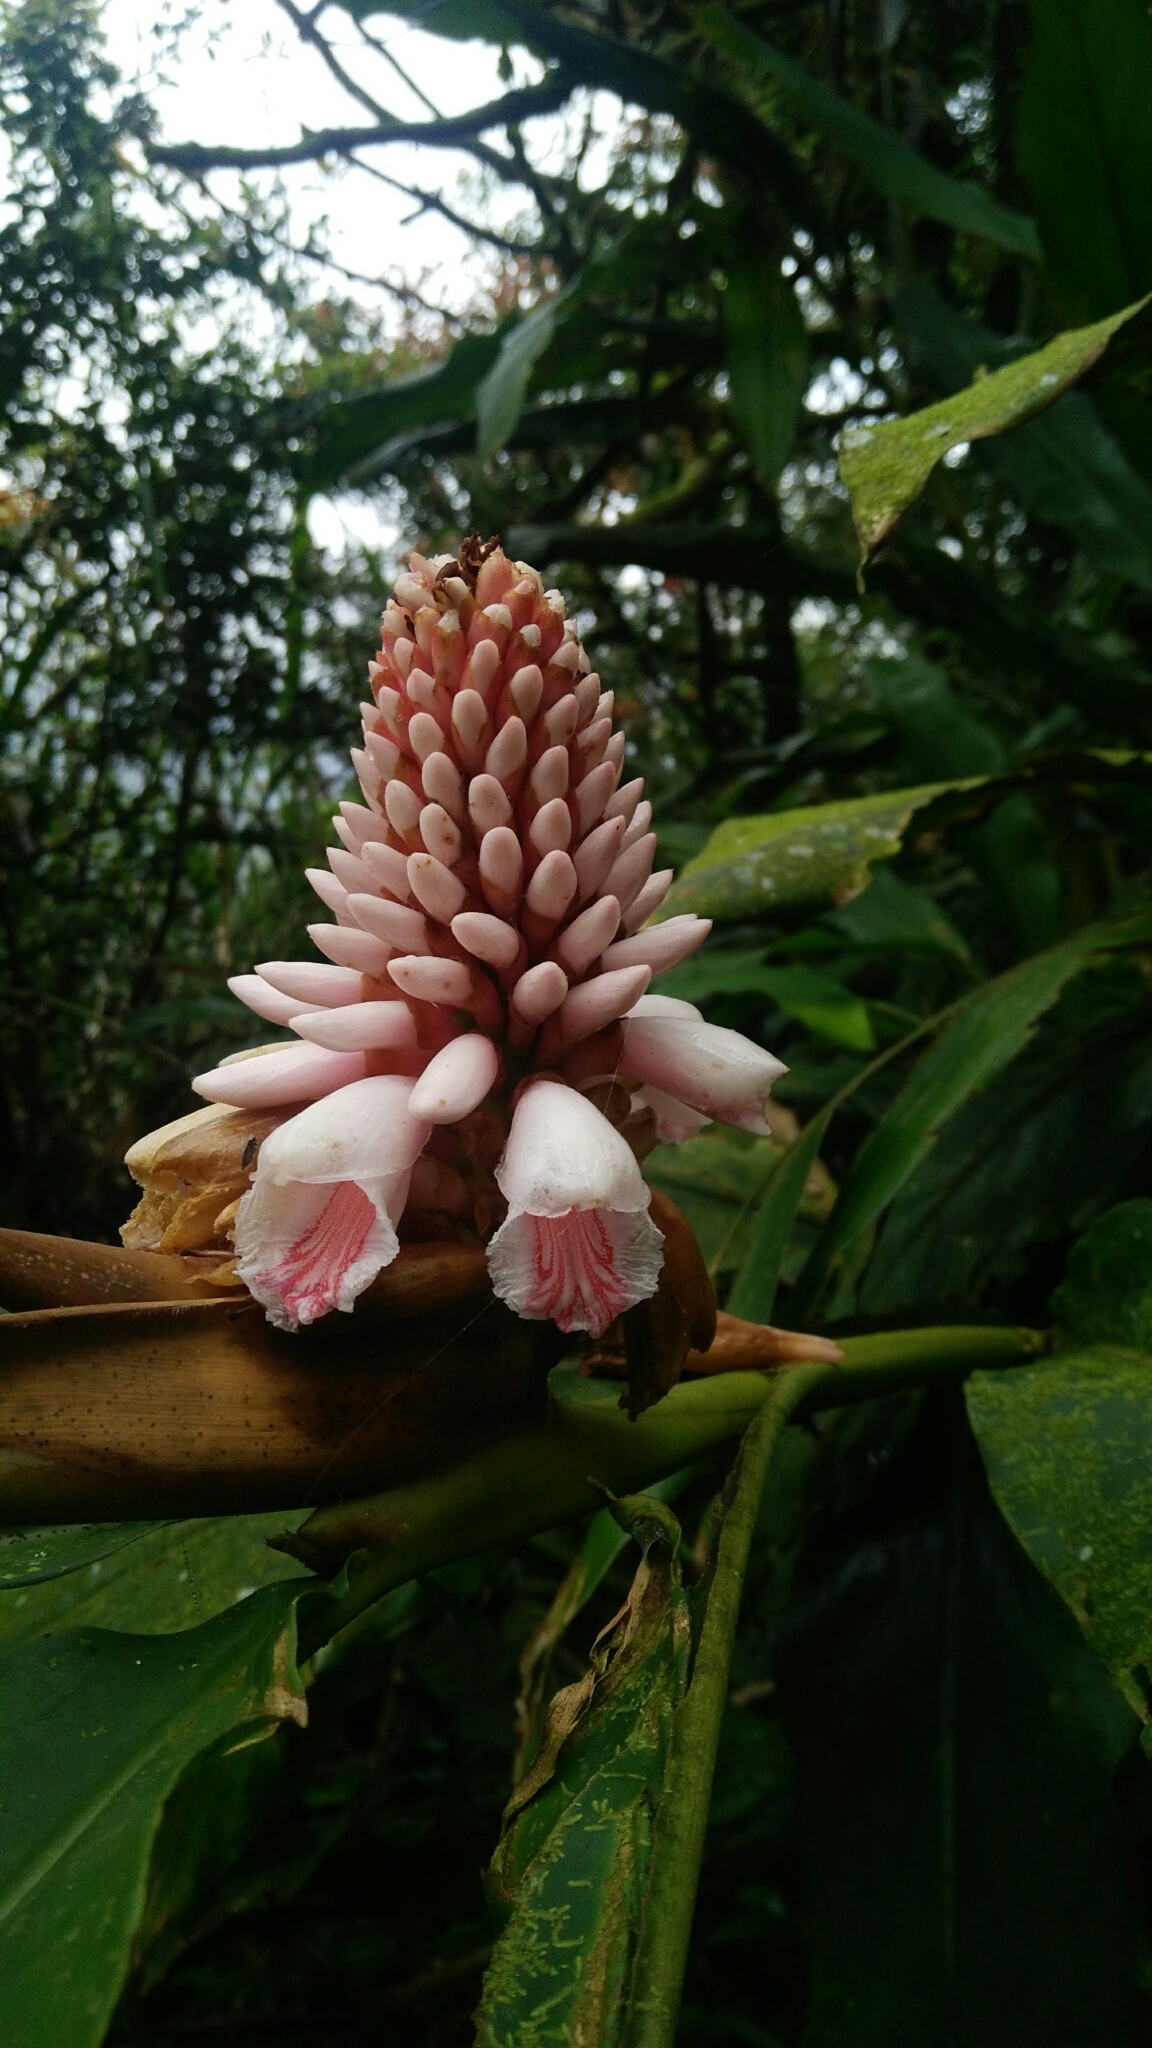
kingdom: Plantae
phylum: Tracheophyta
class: Liliopsida
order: Zingiberales
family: Zingiberaceae
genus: Alpinia
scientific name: Alpinia pricei
